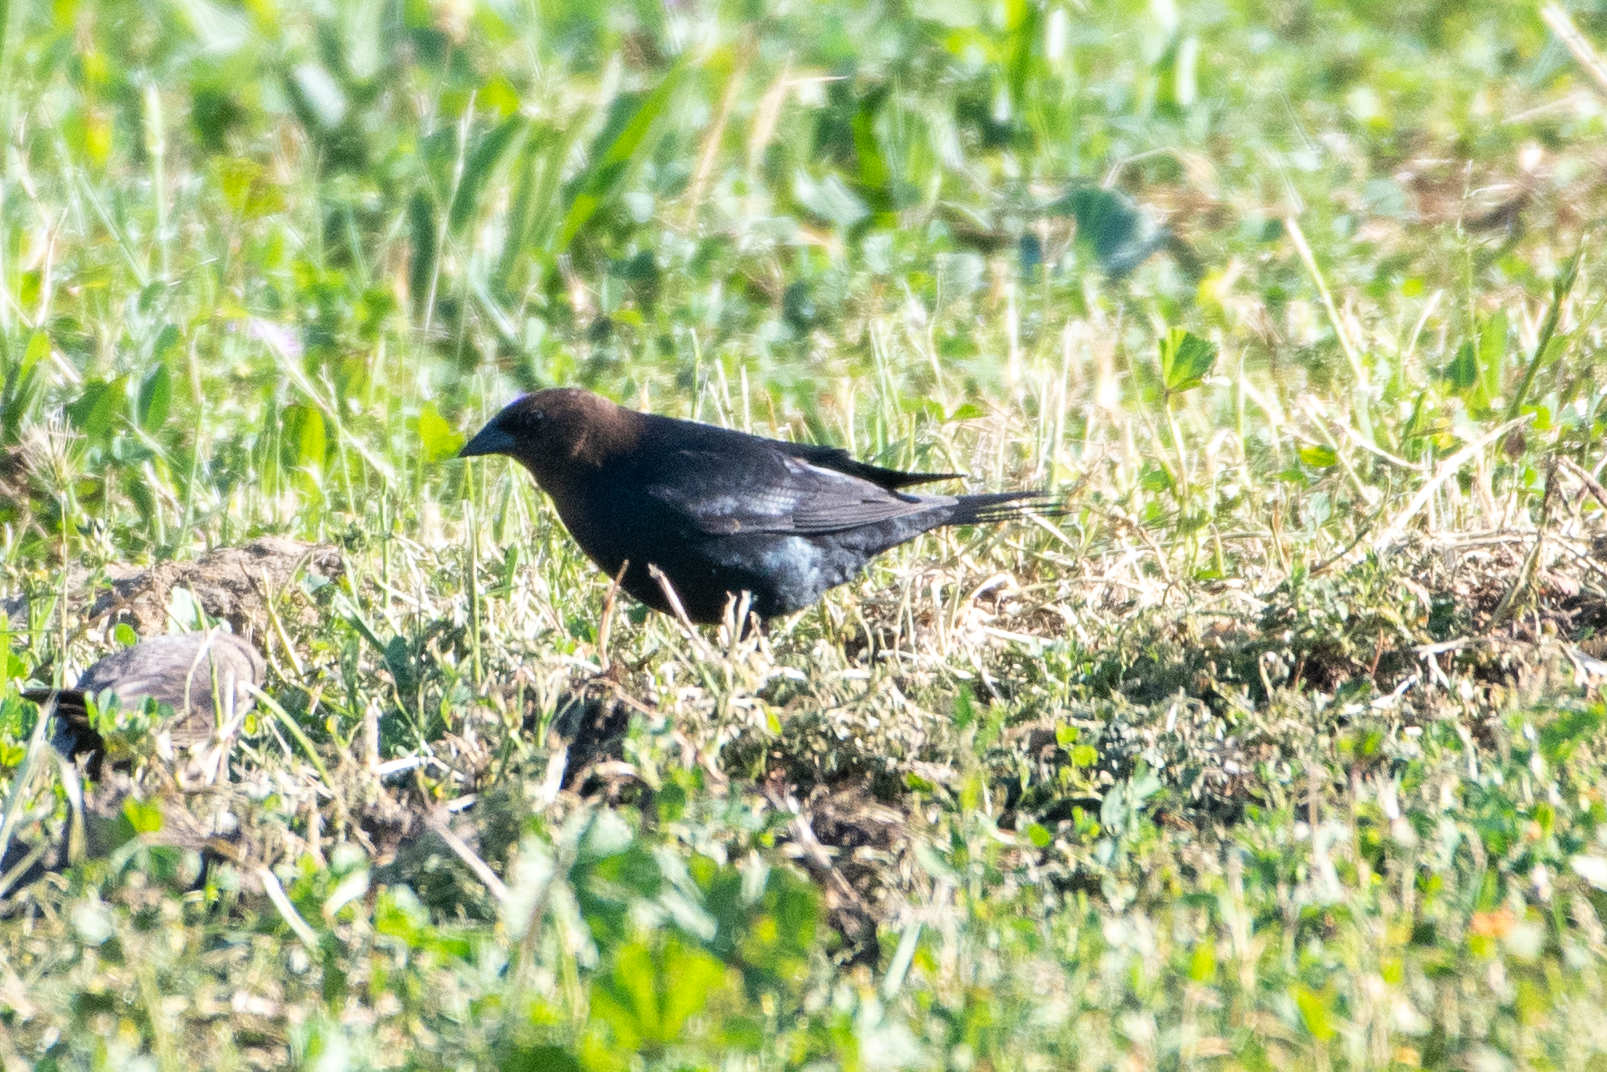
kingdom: Animalia
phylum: Chordata
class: Aves
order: Passeriformes
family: Icteridae
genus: Molothrus
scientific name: Molothrus ater
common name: Brown-headed cowbird
